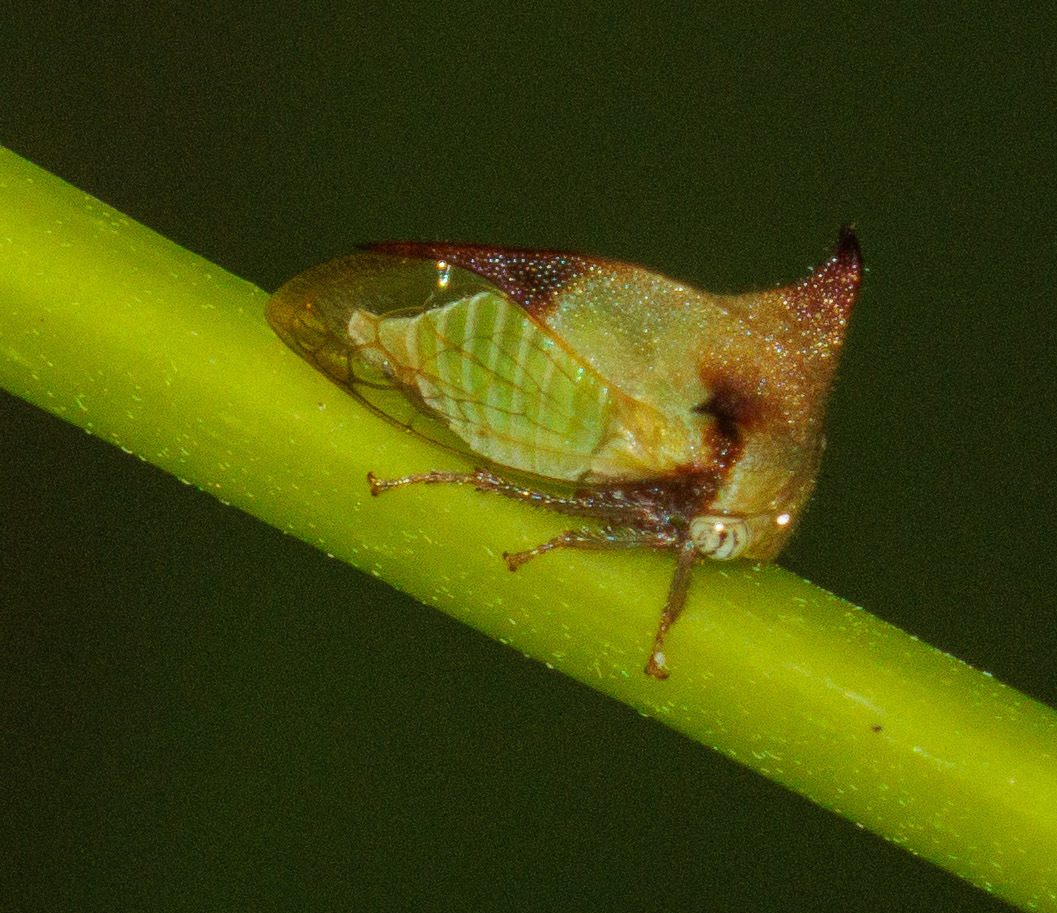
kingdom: Animalia
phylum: Arthropoda
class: Insecta
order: Hemiptera
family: Membracidae
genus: Ceresa
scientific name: Ceresa ustulata
